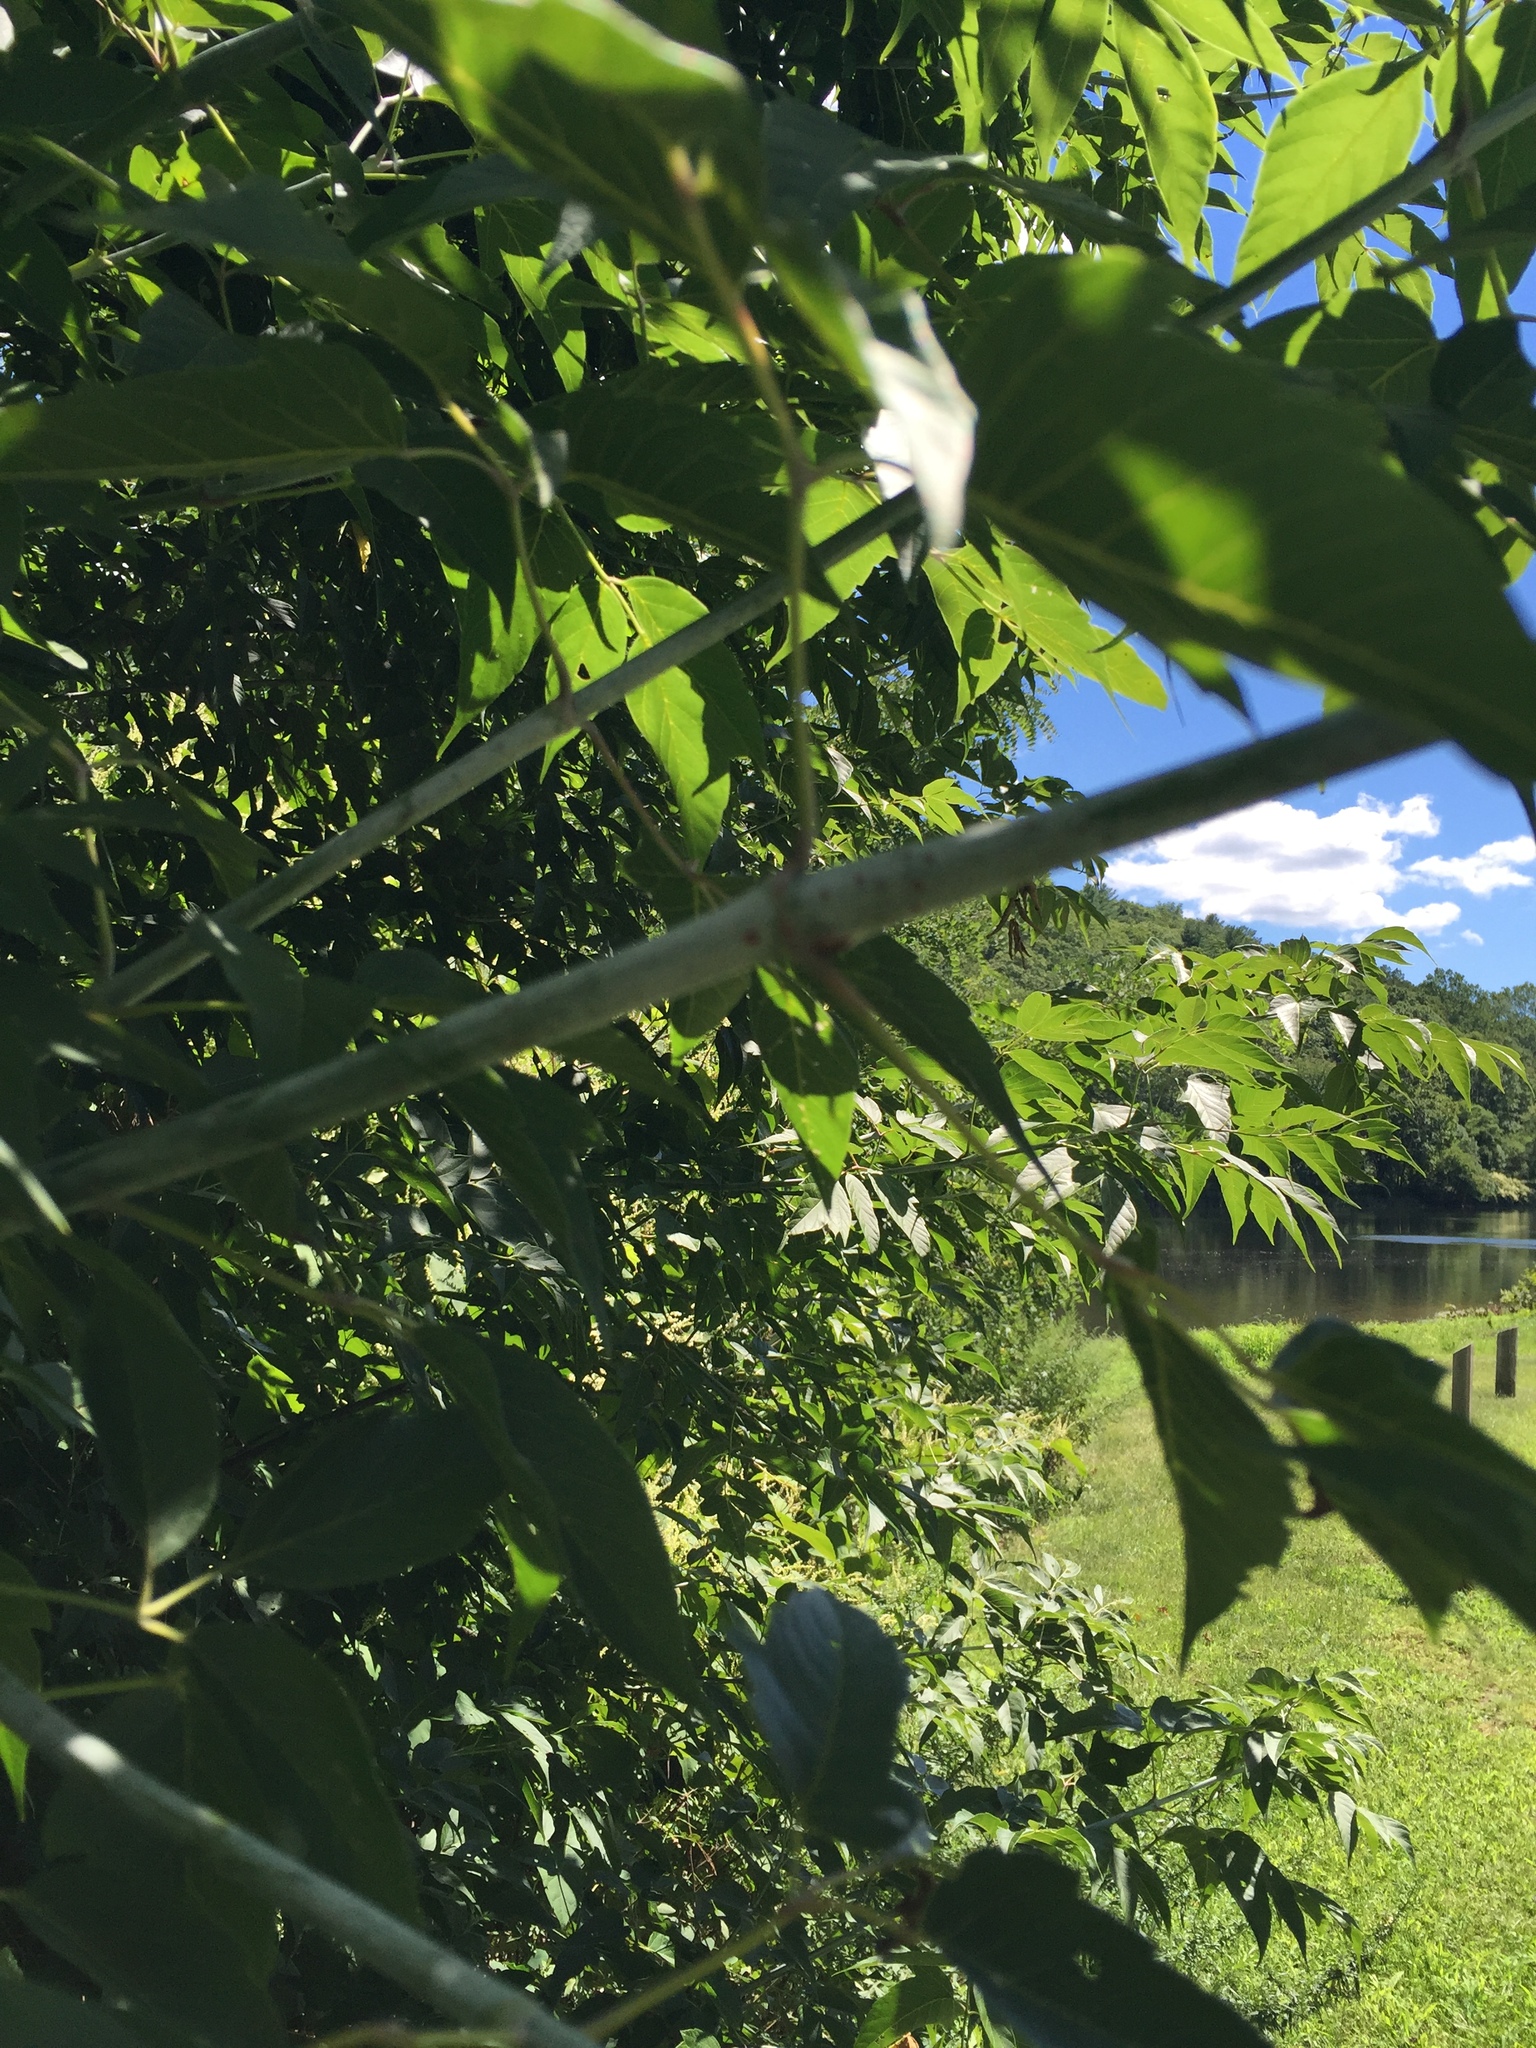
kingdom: Plantae
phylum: Tracheophyta
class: Magnoliopsida
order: Sapindales
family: Sapindaceae
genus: Acer
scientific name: Acer negundo
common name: Ashleaf maple
